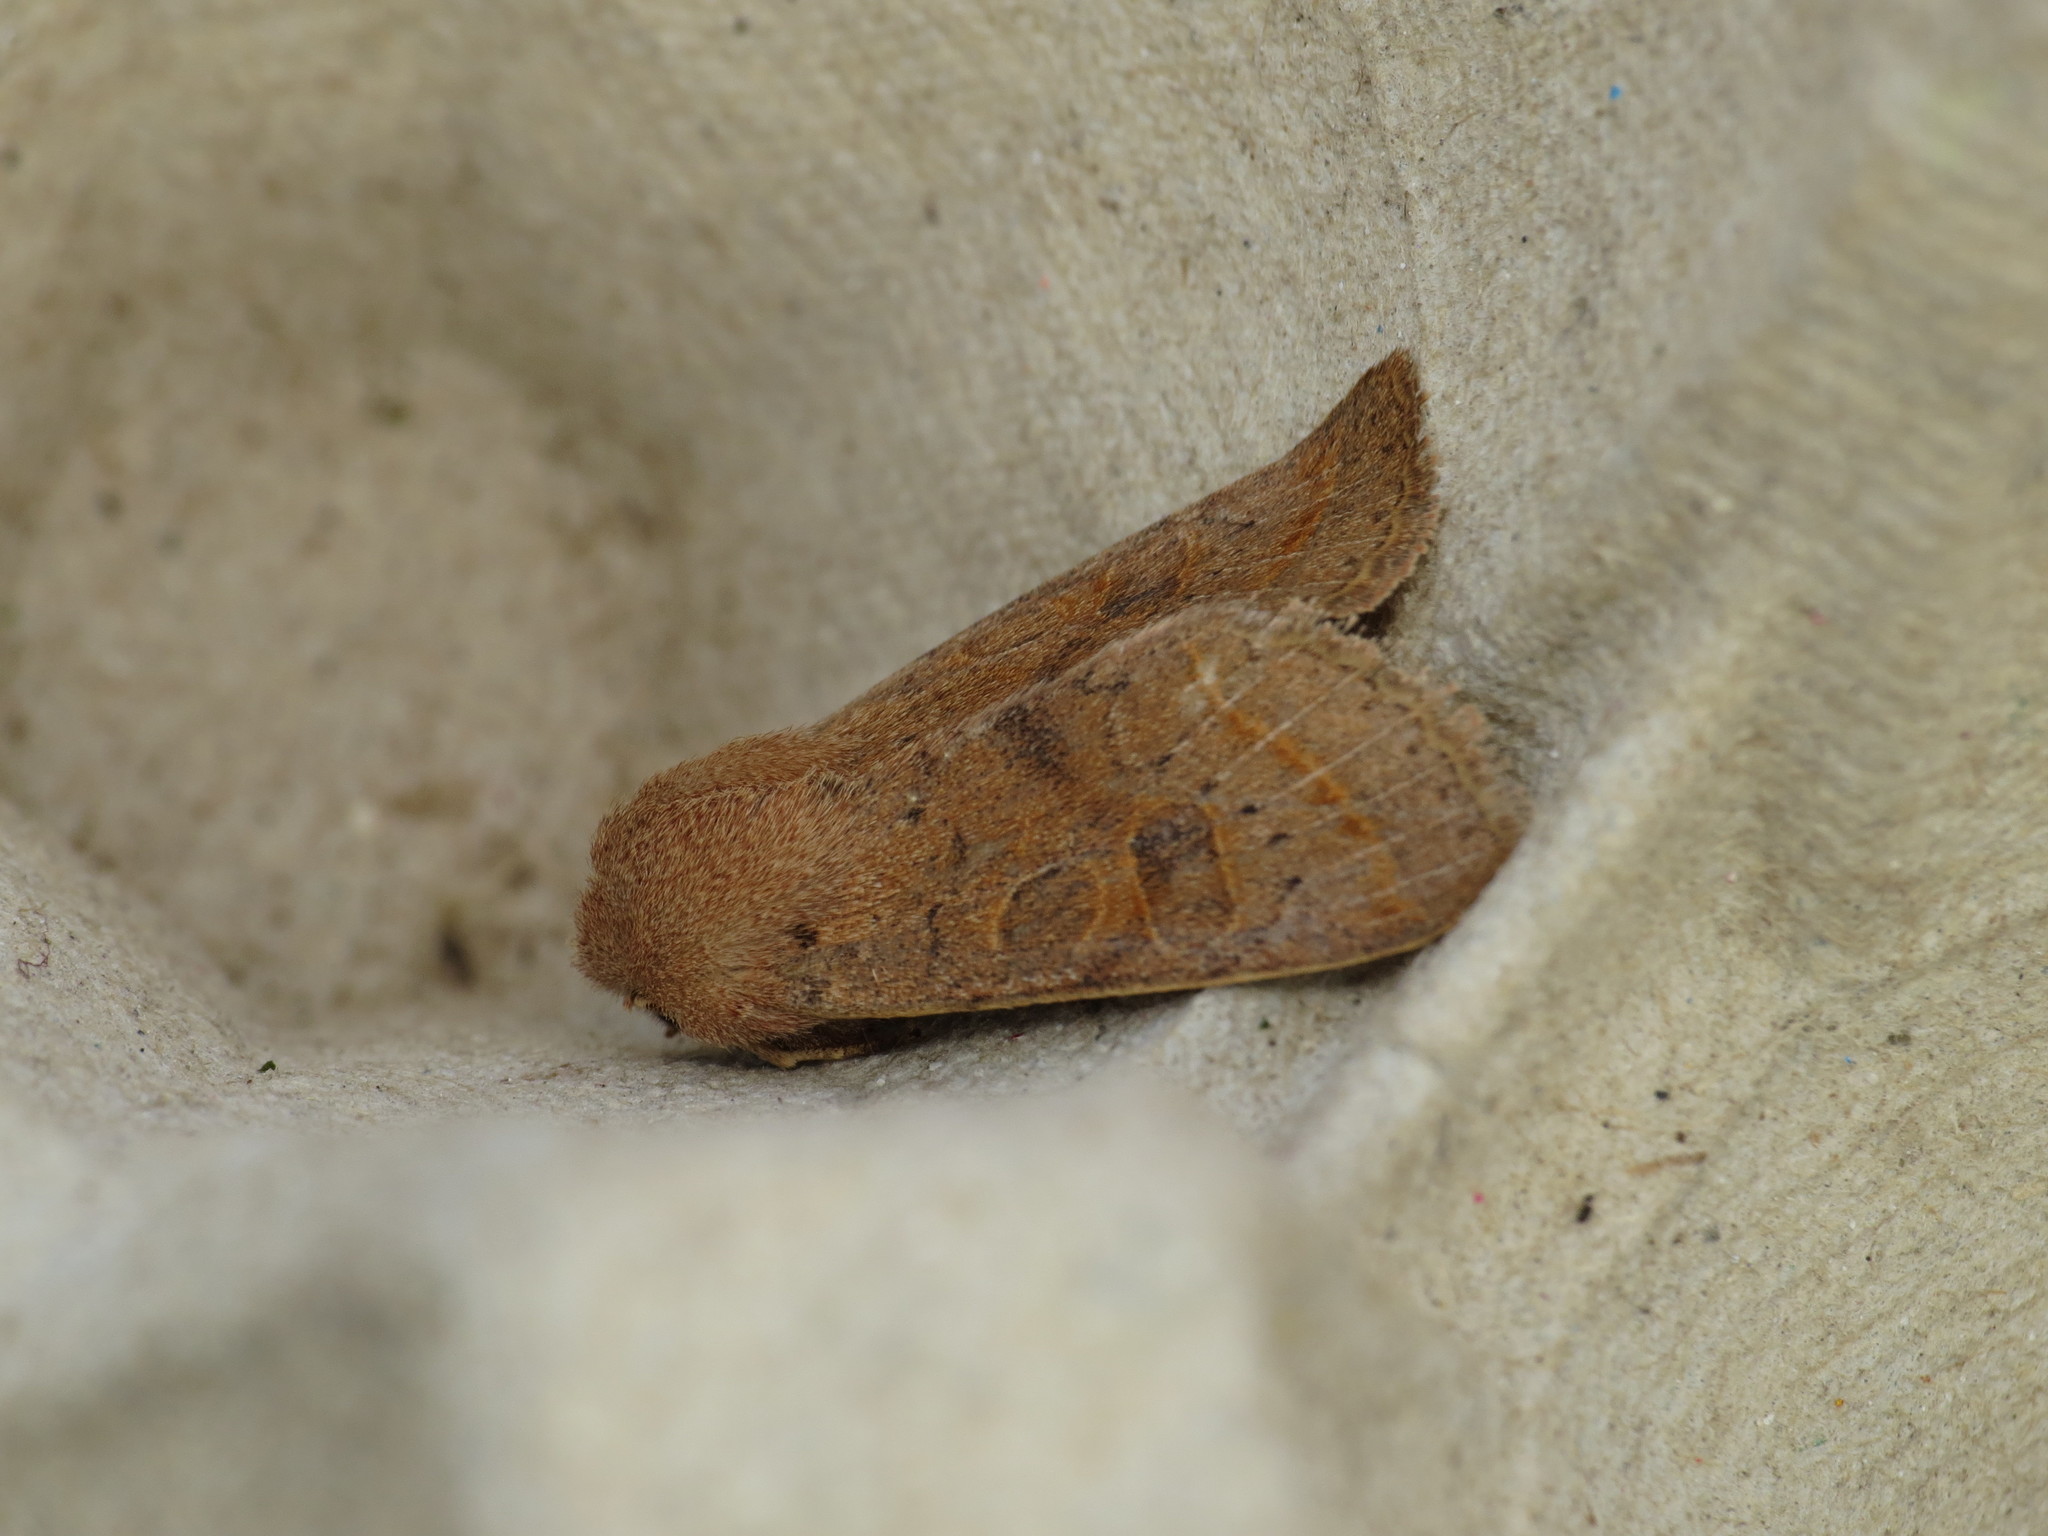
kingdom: Animalia
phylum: Arthropoda
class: Insecta
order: Lepidoptera
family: Noctuidae
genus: Orthosia
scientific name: Orthosia cerasi
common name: Common quaker
